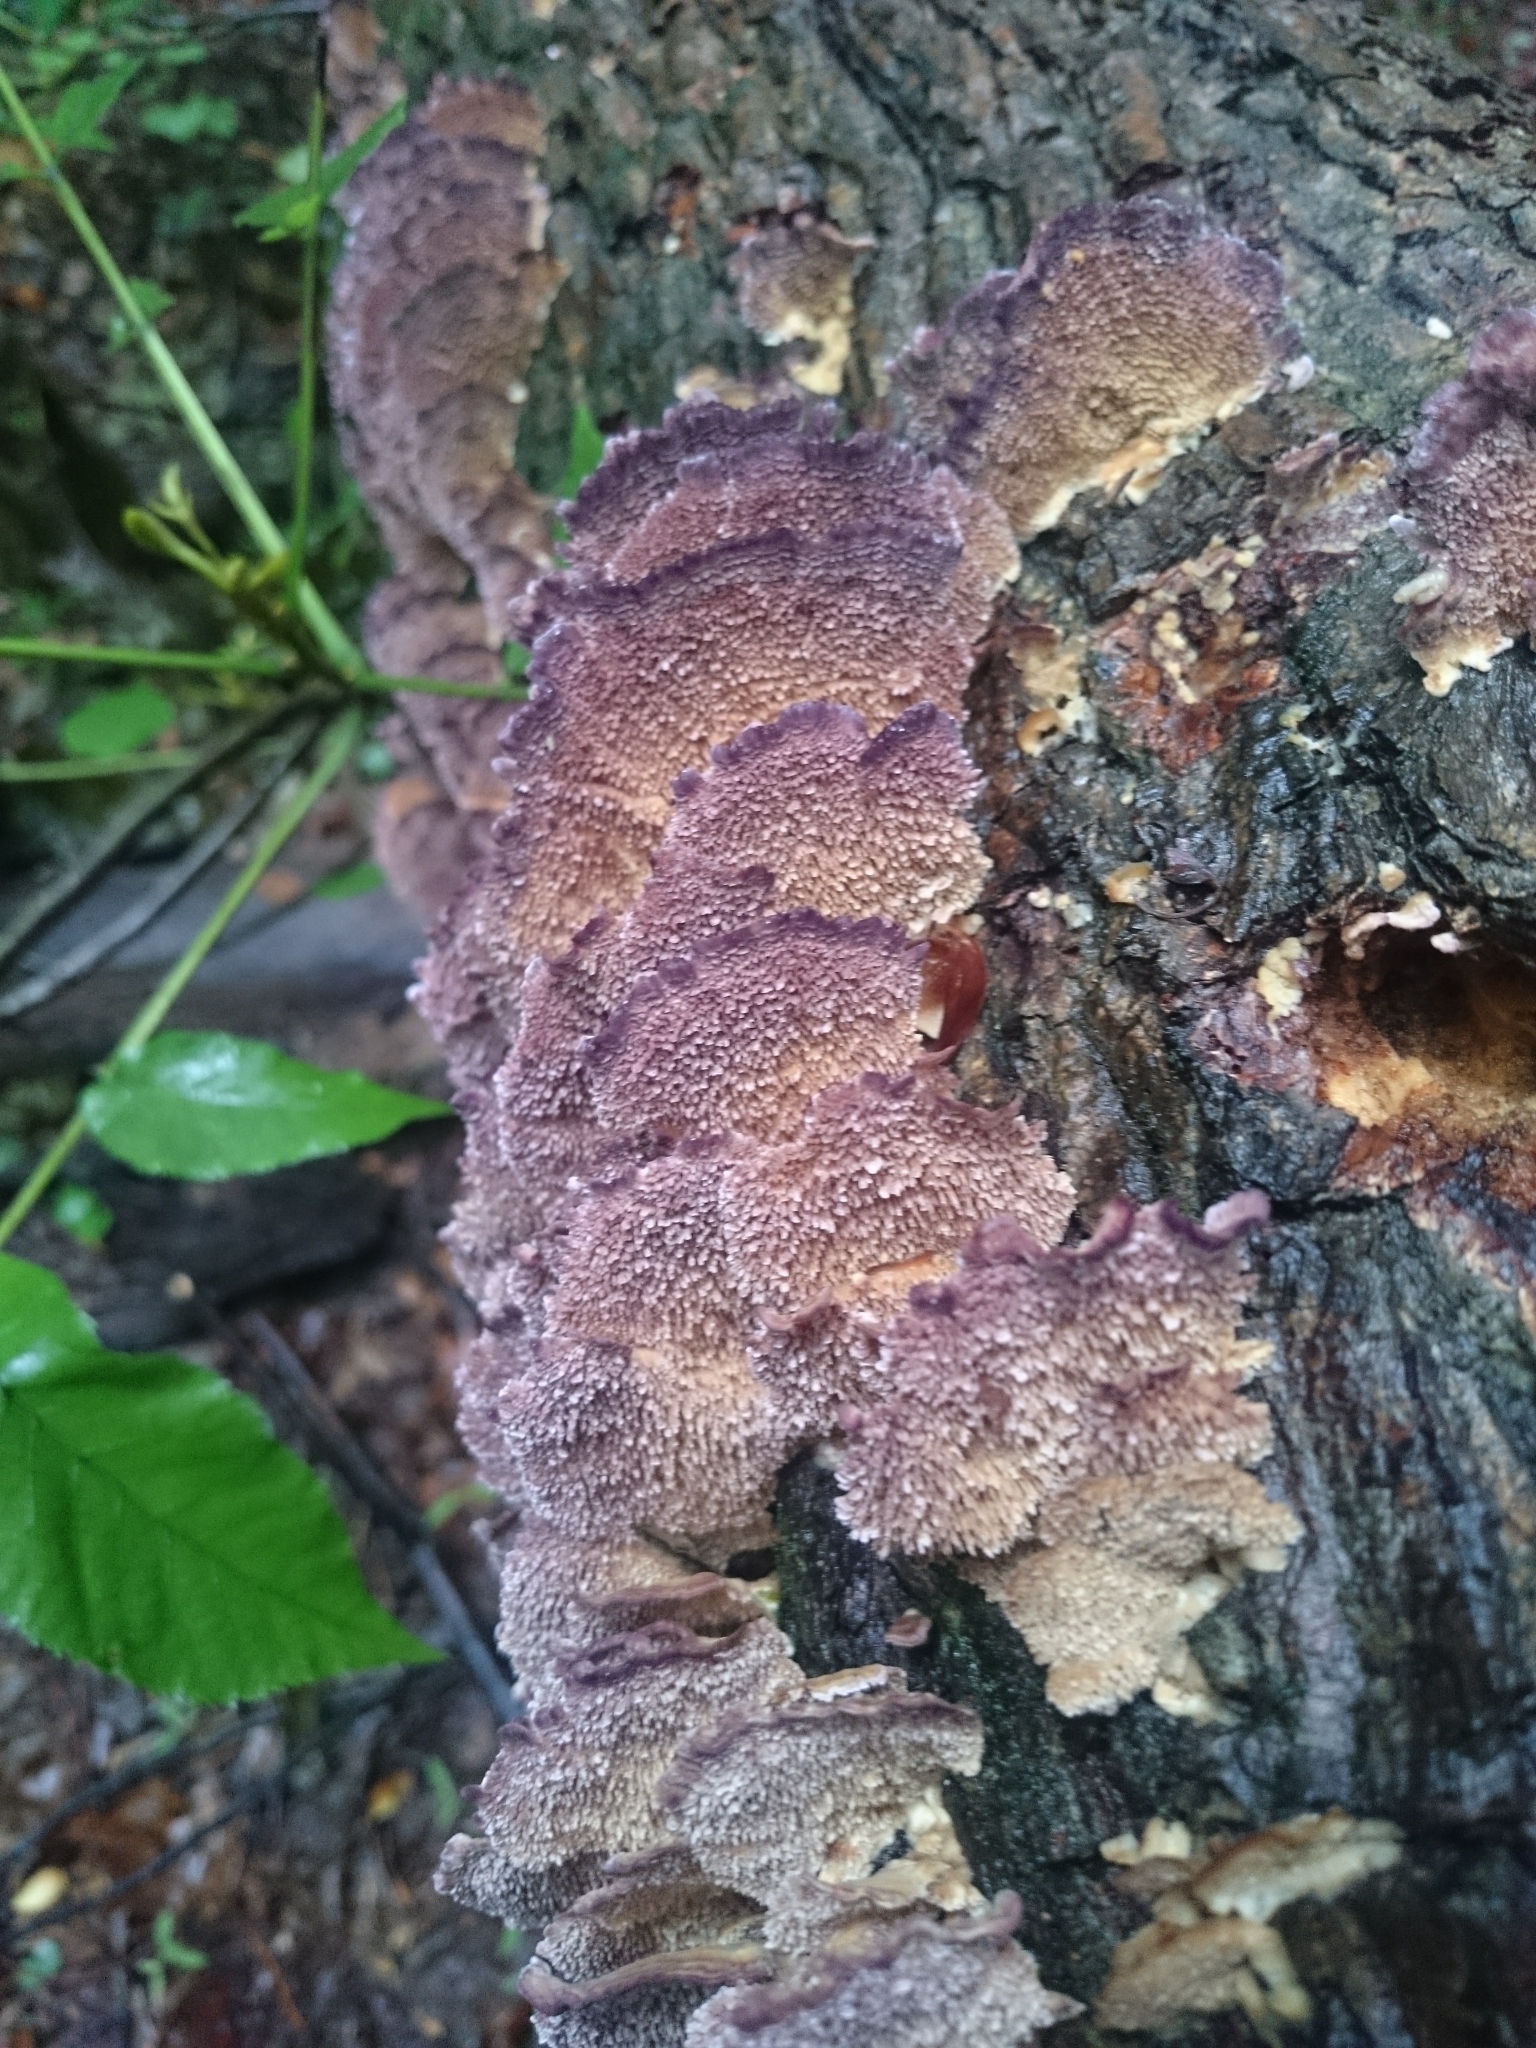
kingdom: Fungi
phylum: Basidiomycota
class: Agaricomycetes
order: Hymenochaetales
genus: Trichaptum
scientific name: Trichaptum abietinum
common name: Purplepore bracket
